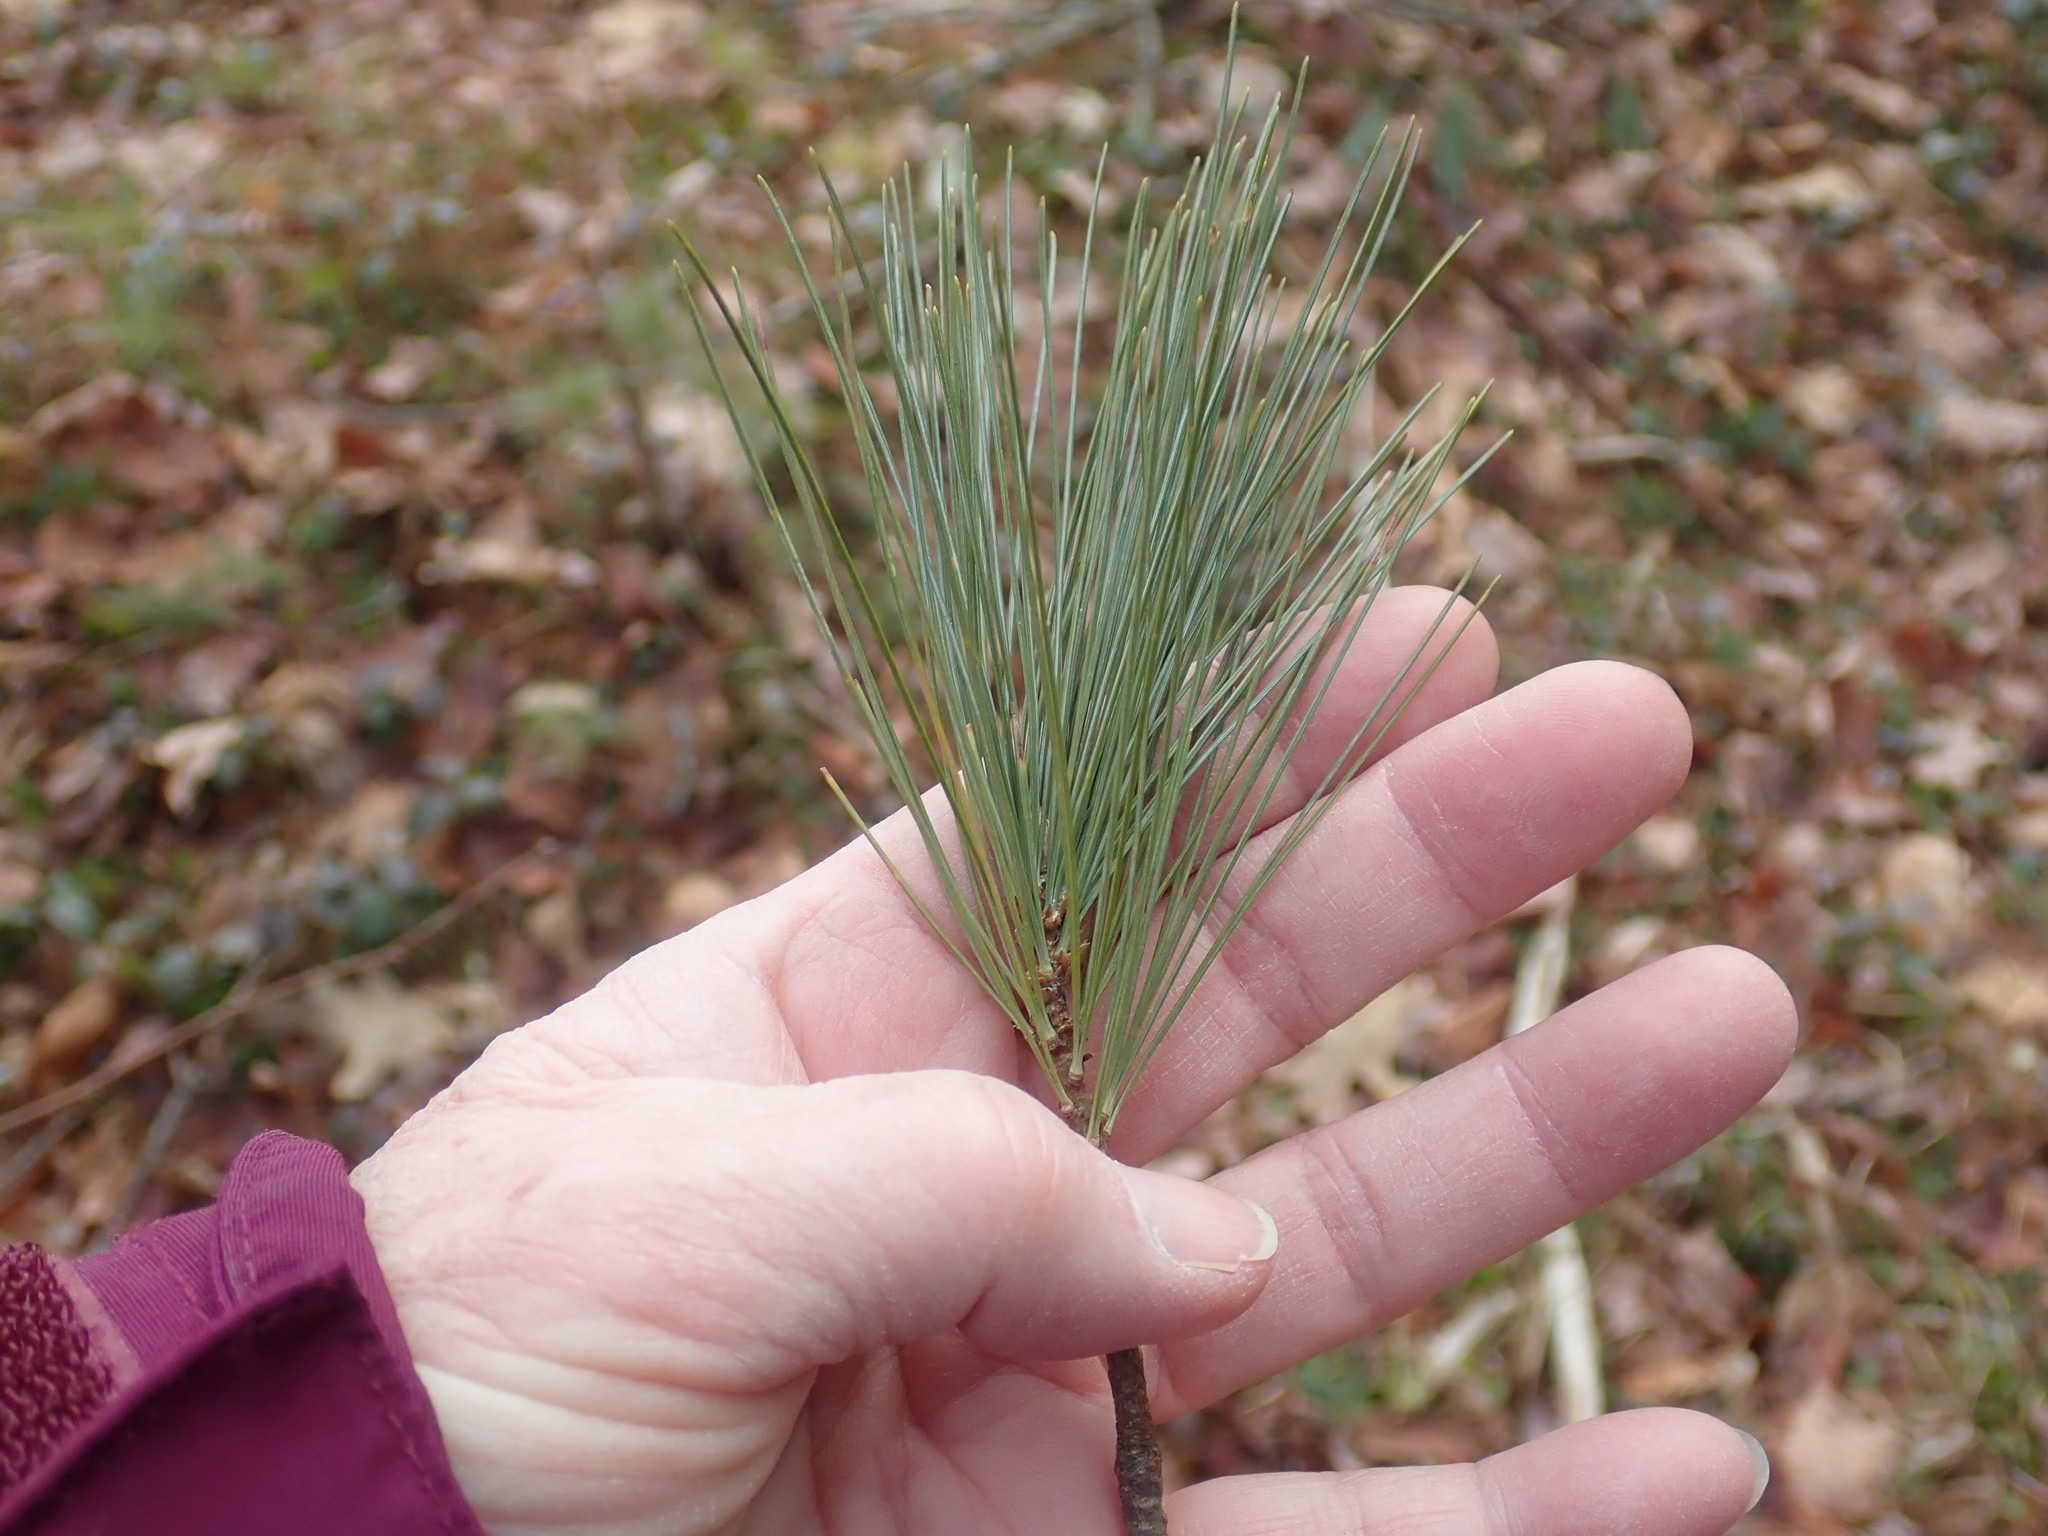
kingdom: Plantae
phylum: Tracheophyta
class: Pinopsida
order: Pinales
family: Pinaceae
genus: Pinus
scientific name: Pinus strobus
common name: Weymouth pine
